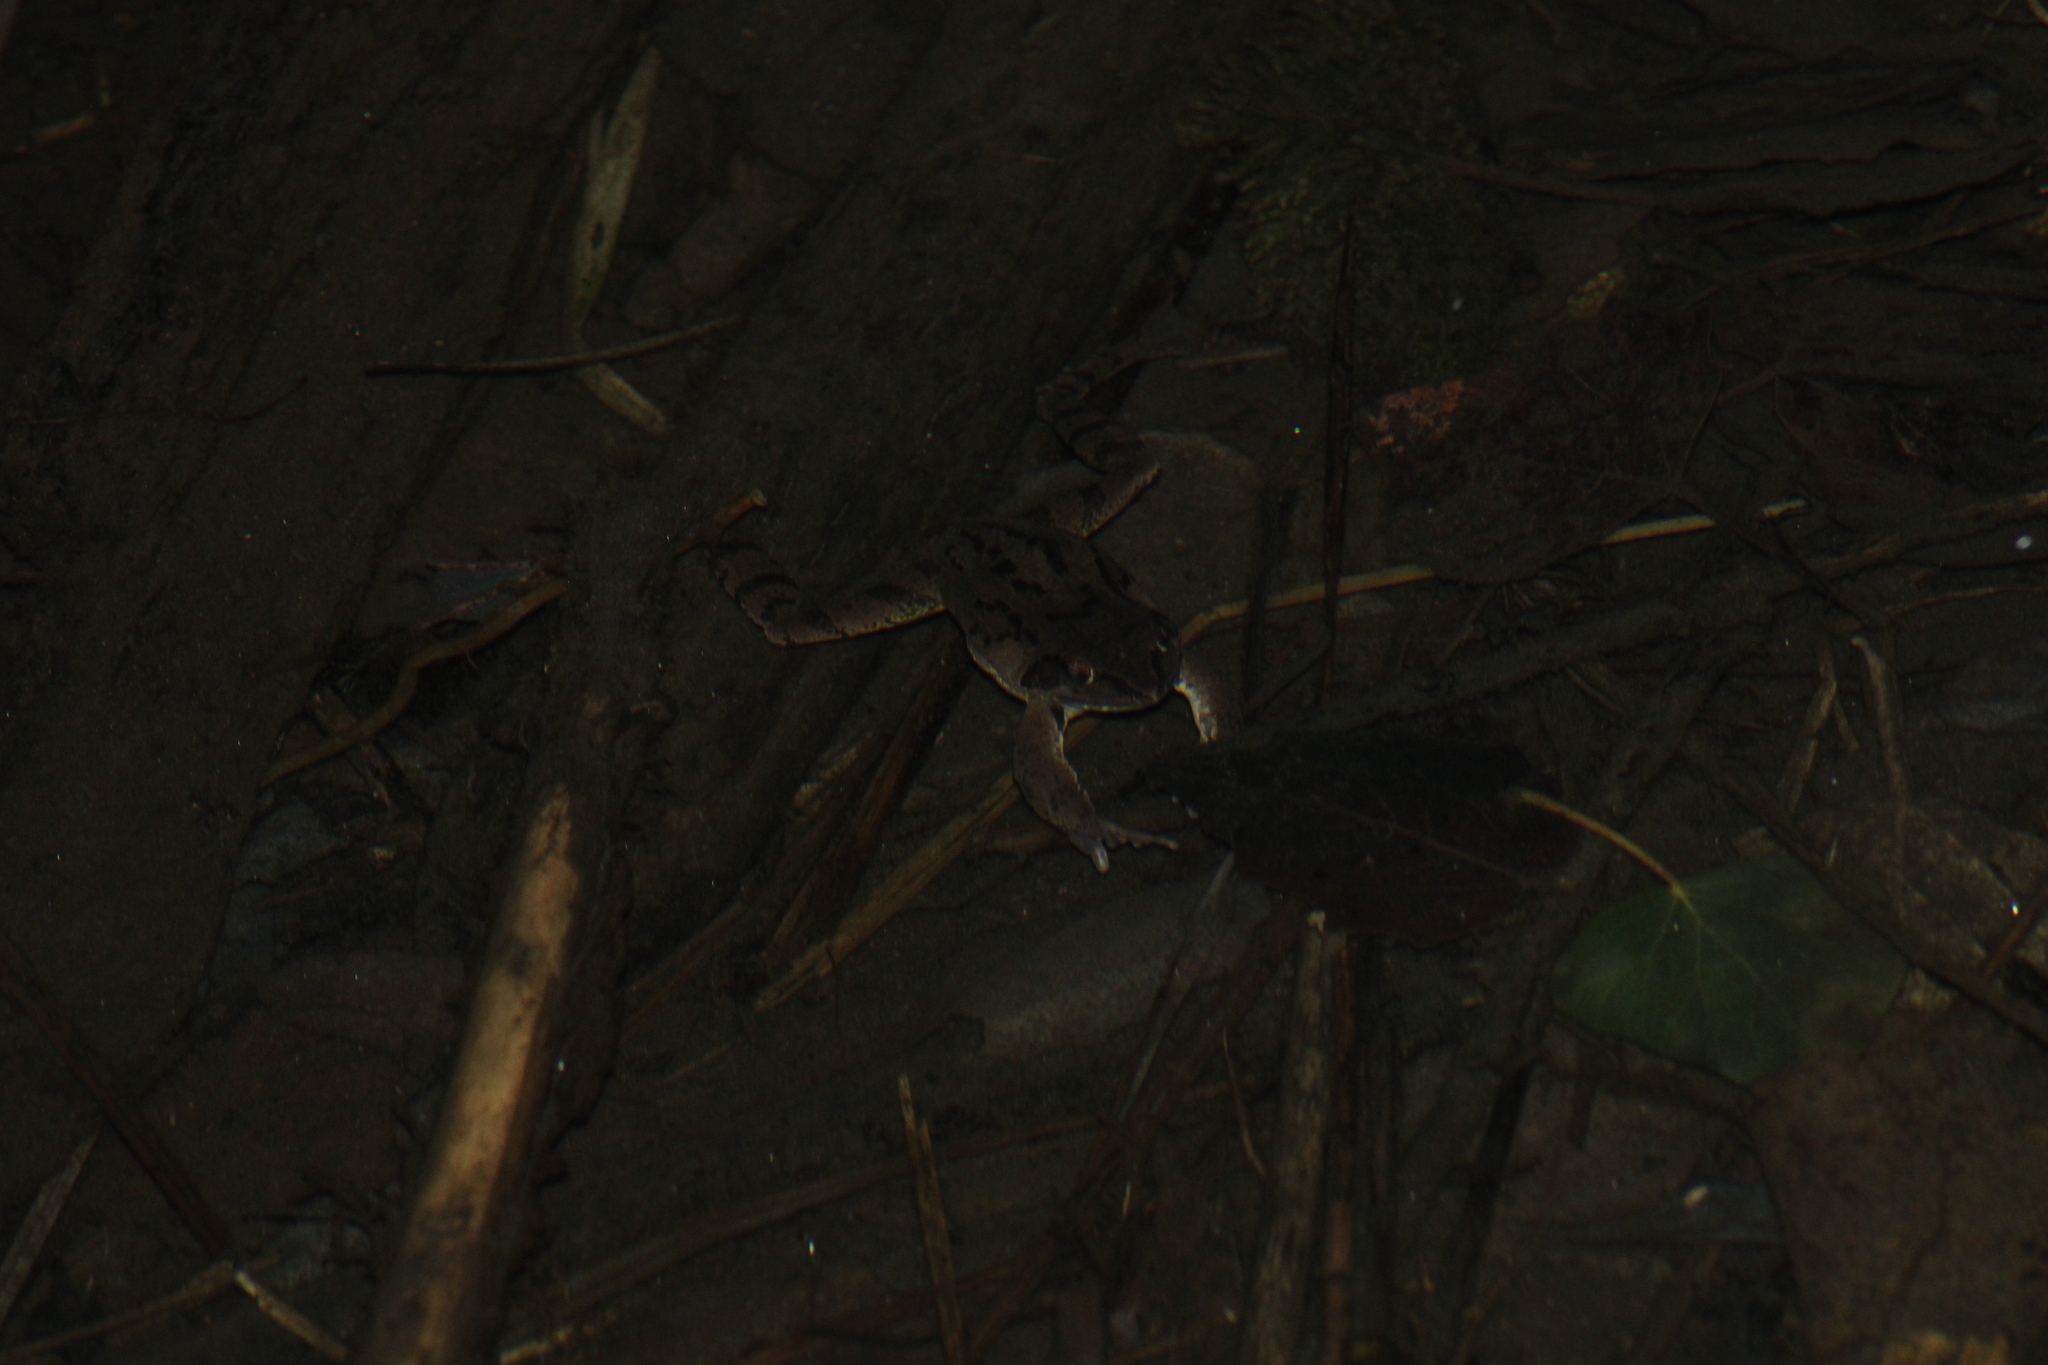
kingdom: Animalia
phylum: Chordata
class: Amphibia
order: Anura
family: Ranidae
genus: Rana
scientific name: Rana dalmatina
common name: Agile frog
